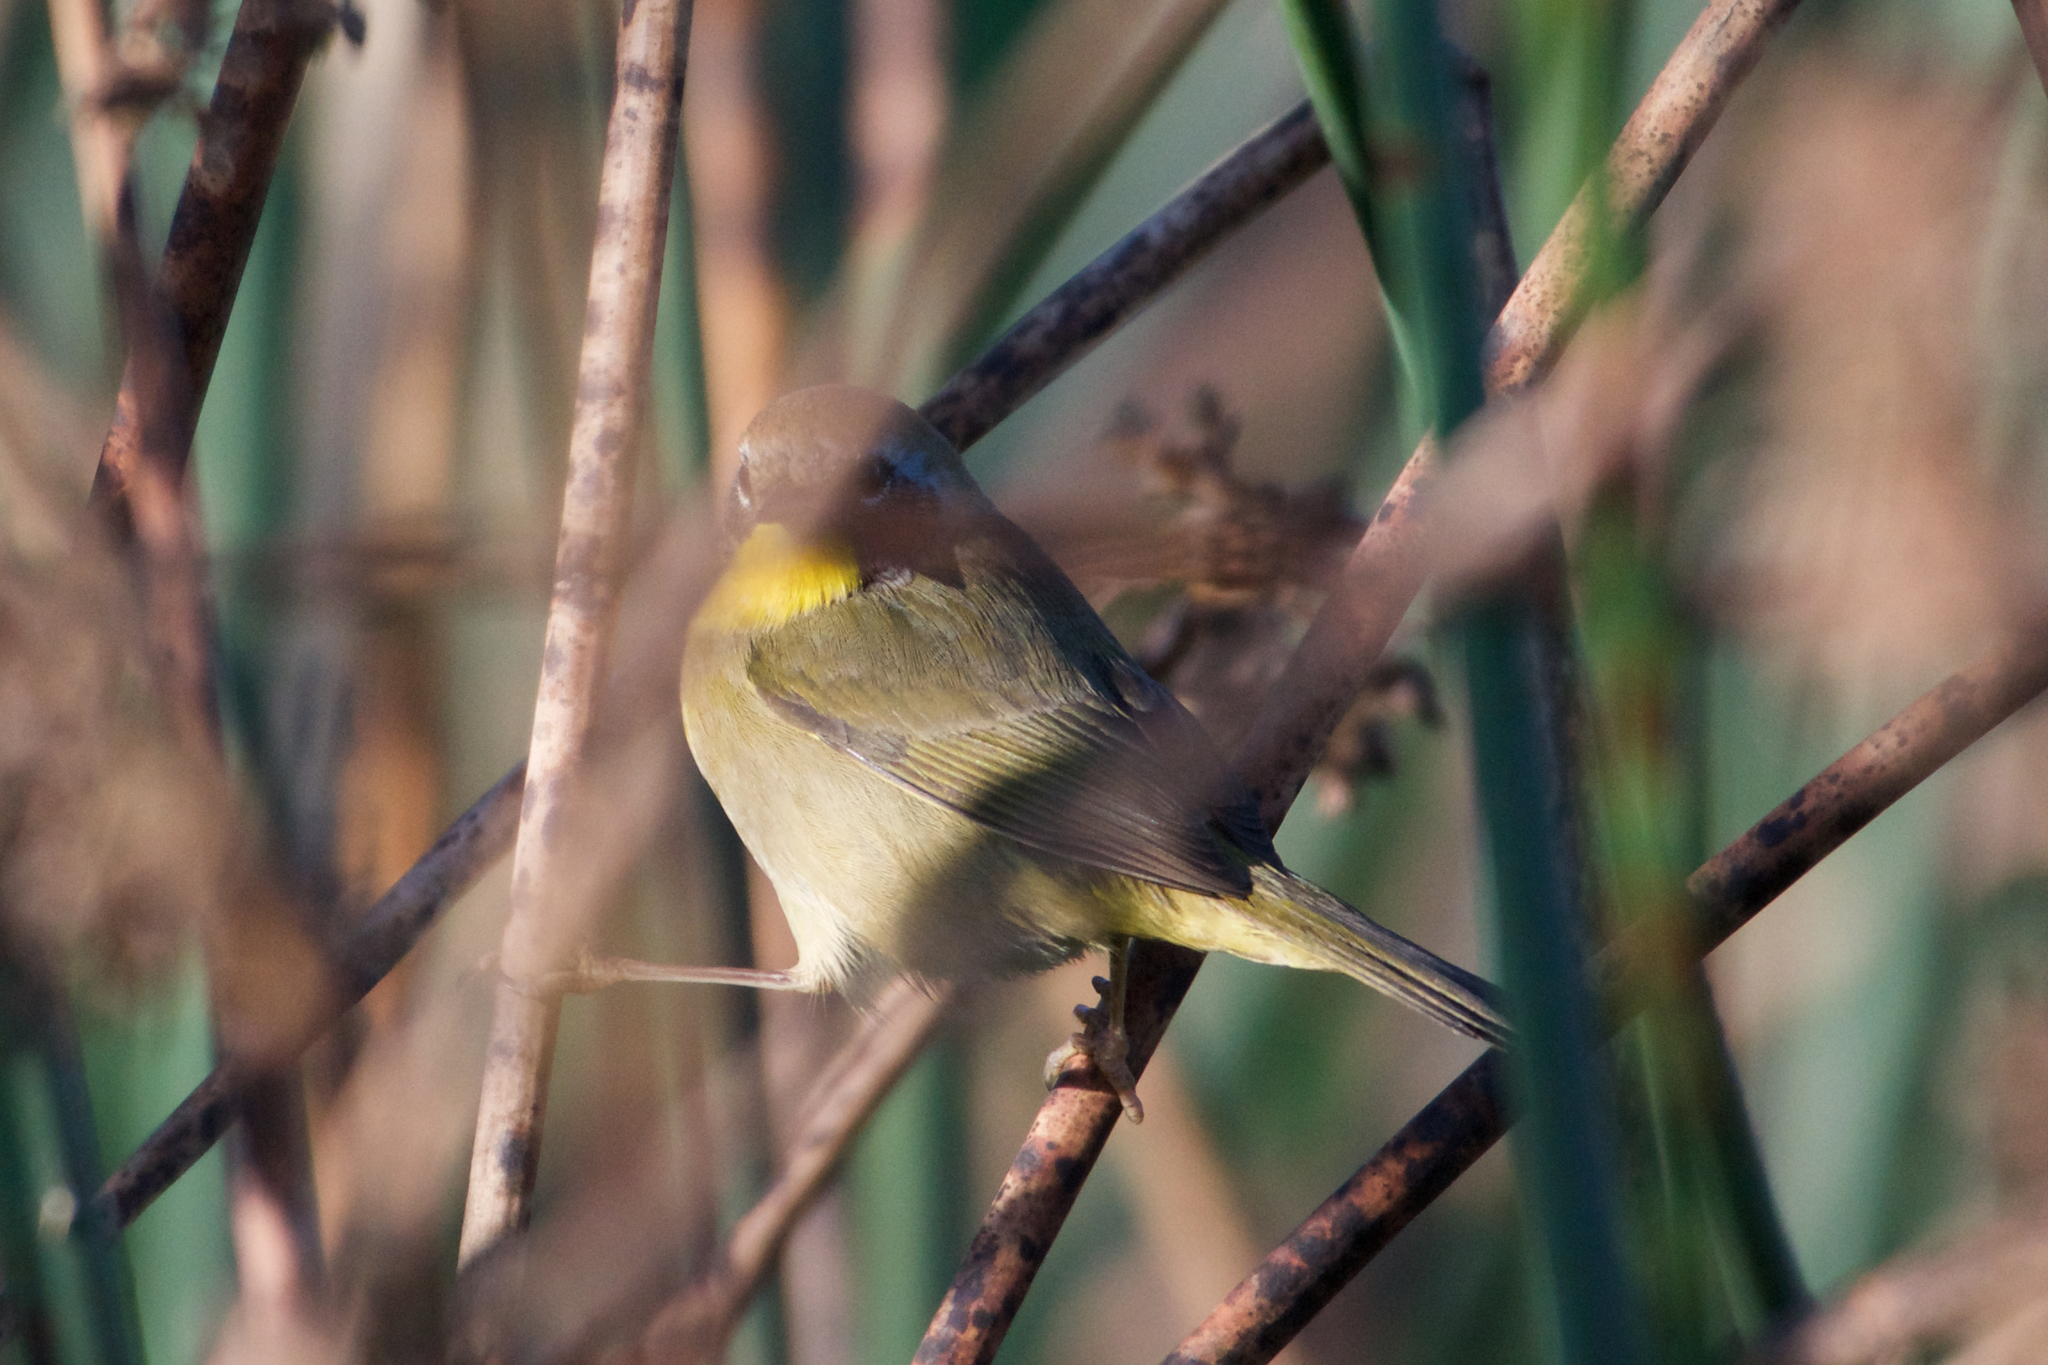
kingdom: Animalia
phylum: Chordata
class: Aves
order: Passeriformes
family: Parulidae
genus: Geothlypis
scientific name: Geothlypis trichas
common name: Common yellowthroat
